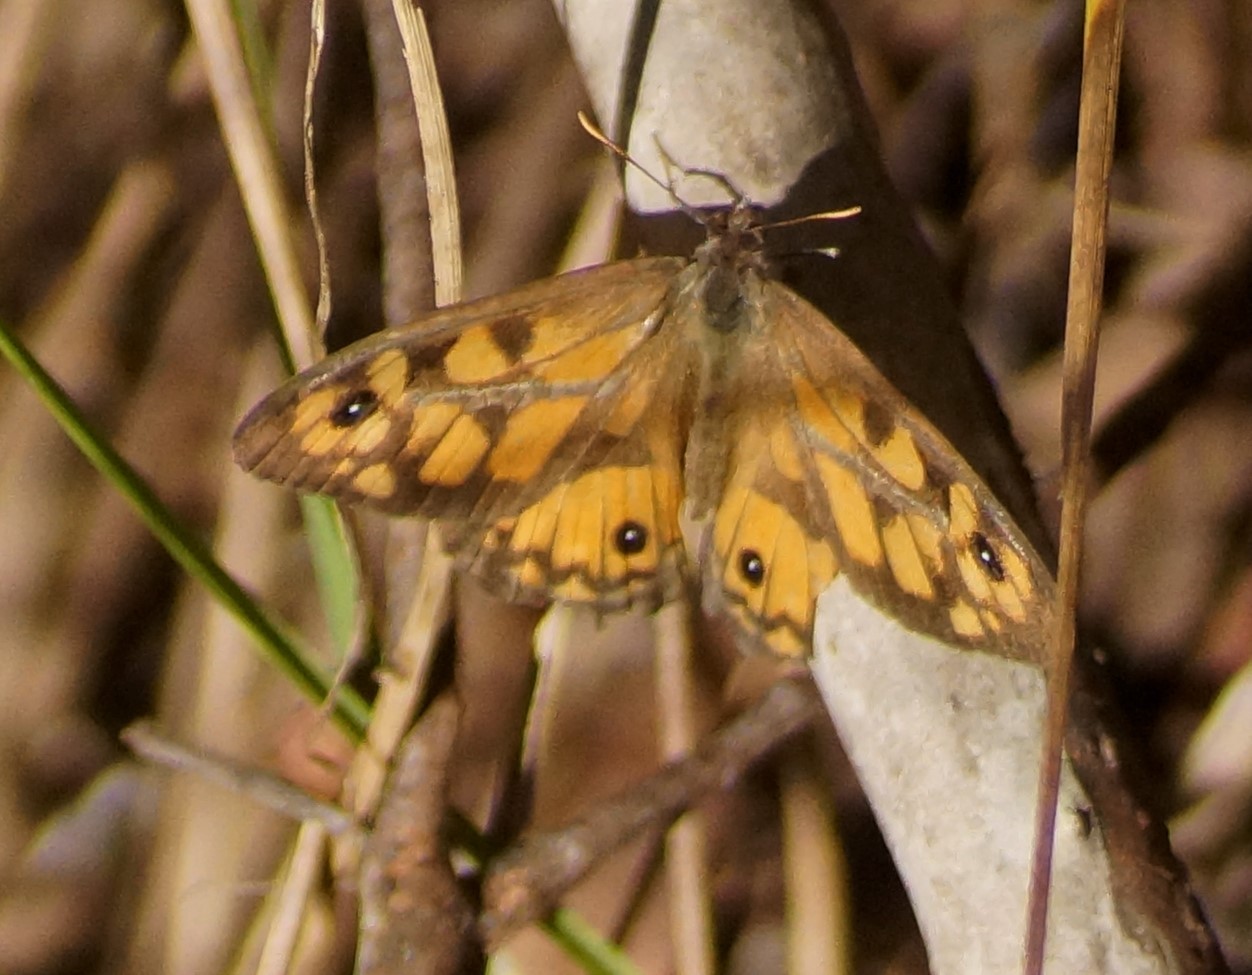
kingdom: Animalia
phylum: Arthropoda
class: Insecta
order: Lepidoptera
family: Nymphalidae
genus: Geitoneura
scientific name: Geitoneura klugii
